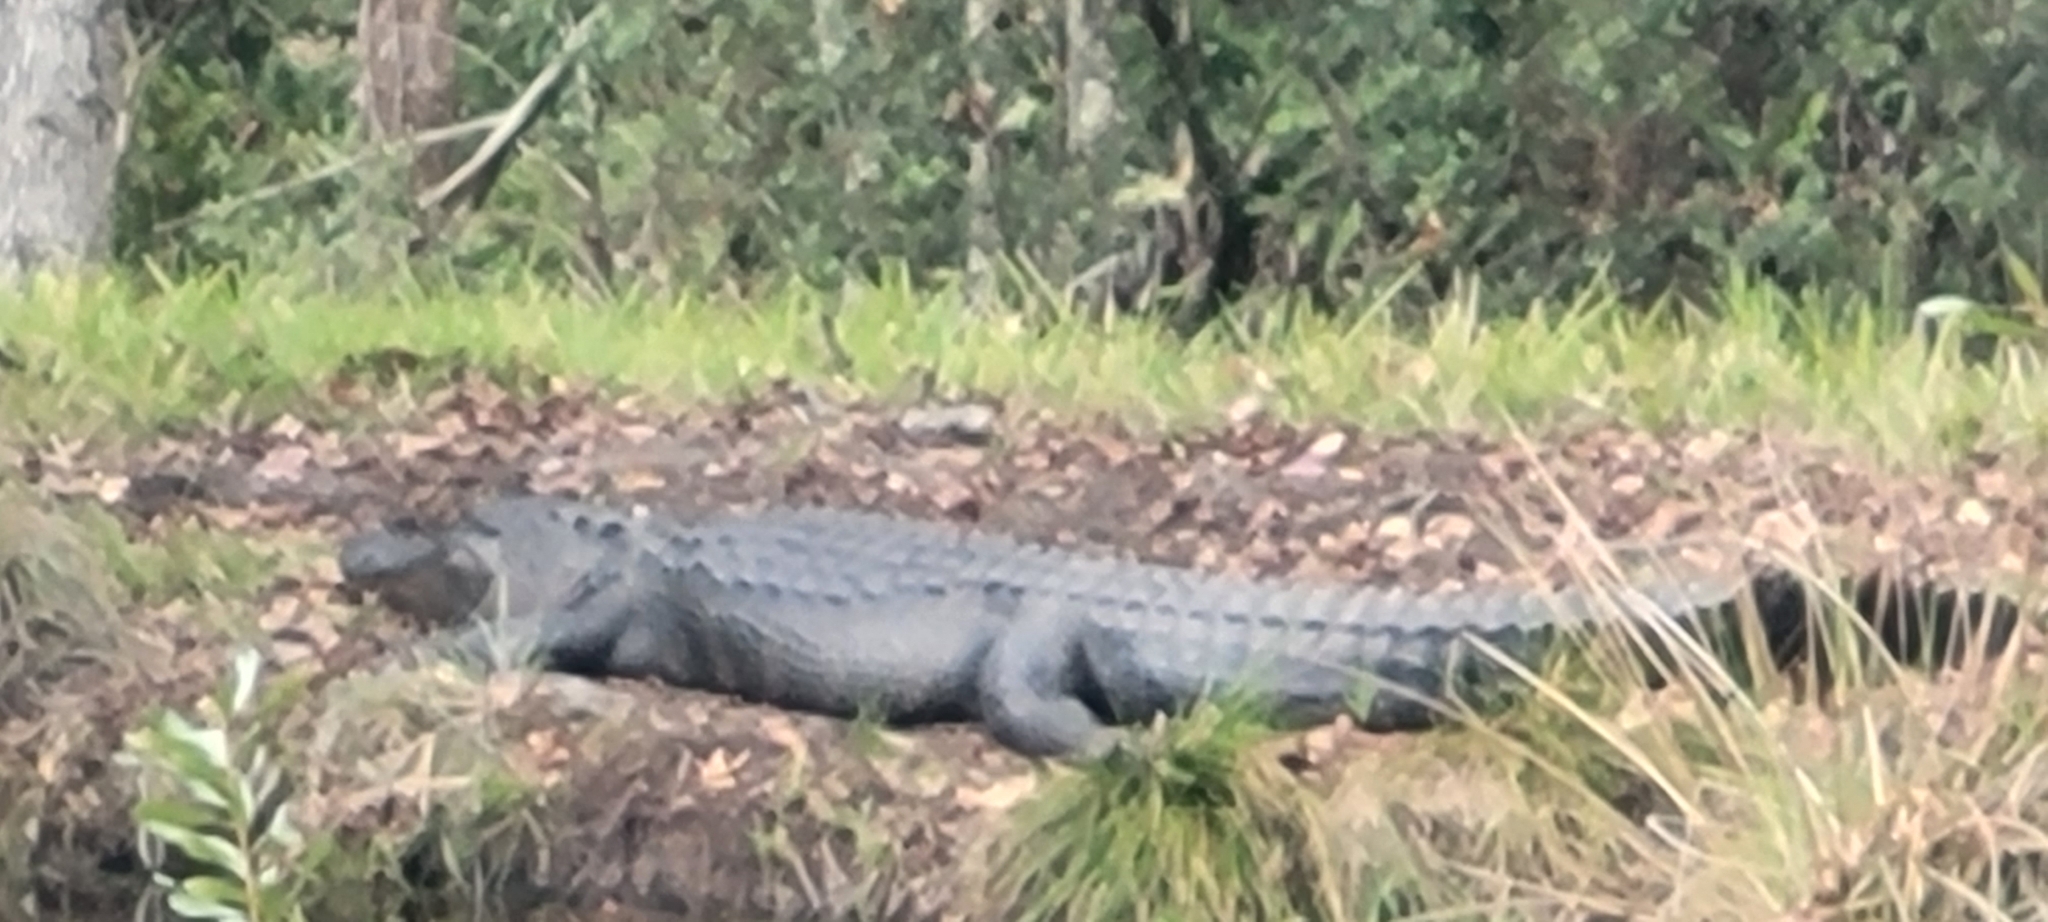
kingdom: Animalia
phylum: Chordata
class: Crocodylia
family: Alligatoridae
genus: Alligator
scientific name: Alligator mississippiensis
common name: American alligator
